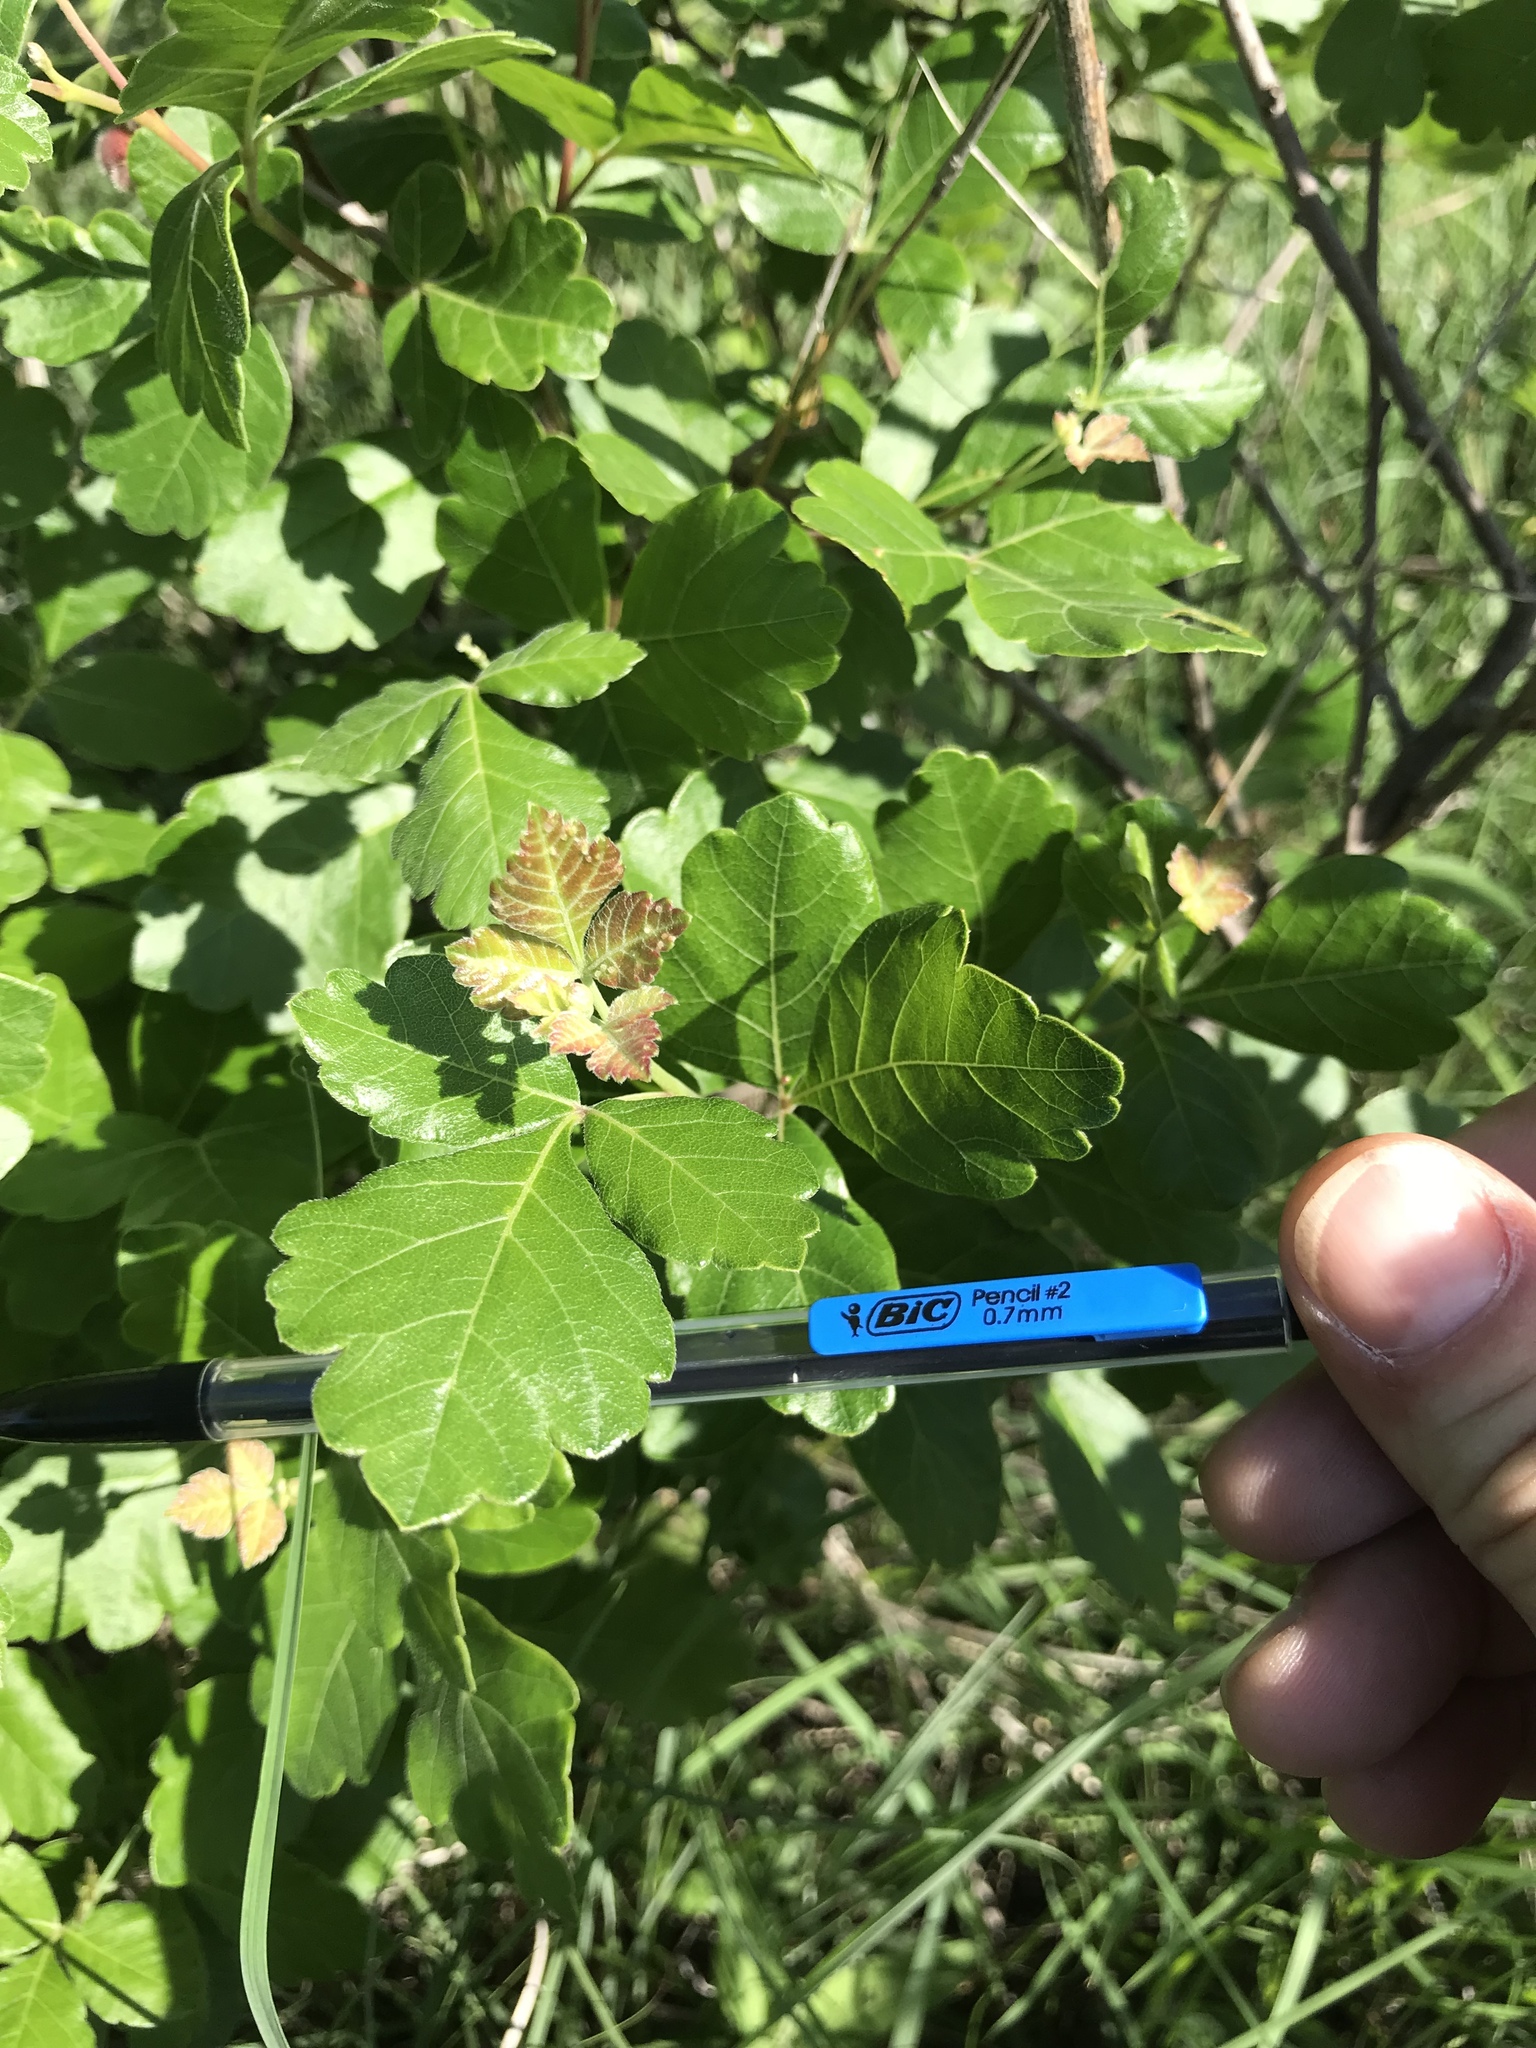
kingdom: Plantae
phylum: Tracheophyta
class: Magnoliopsida
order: Sapindales
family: Anacardiaceae
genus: Rhus
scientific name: Rhus aromatica
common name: Aromatic sumac
